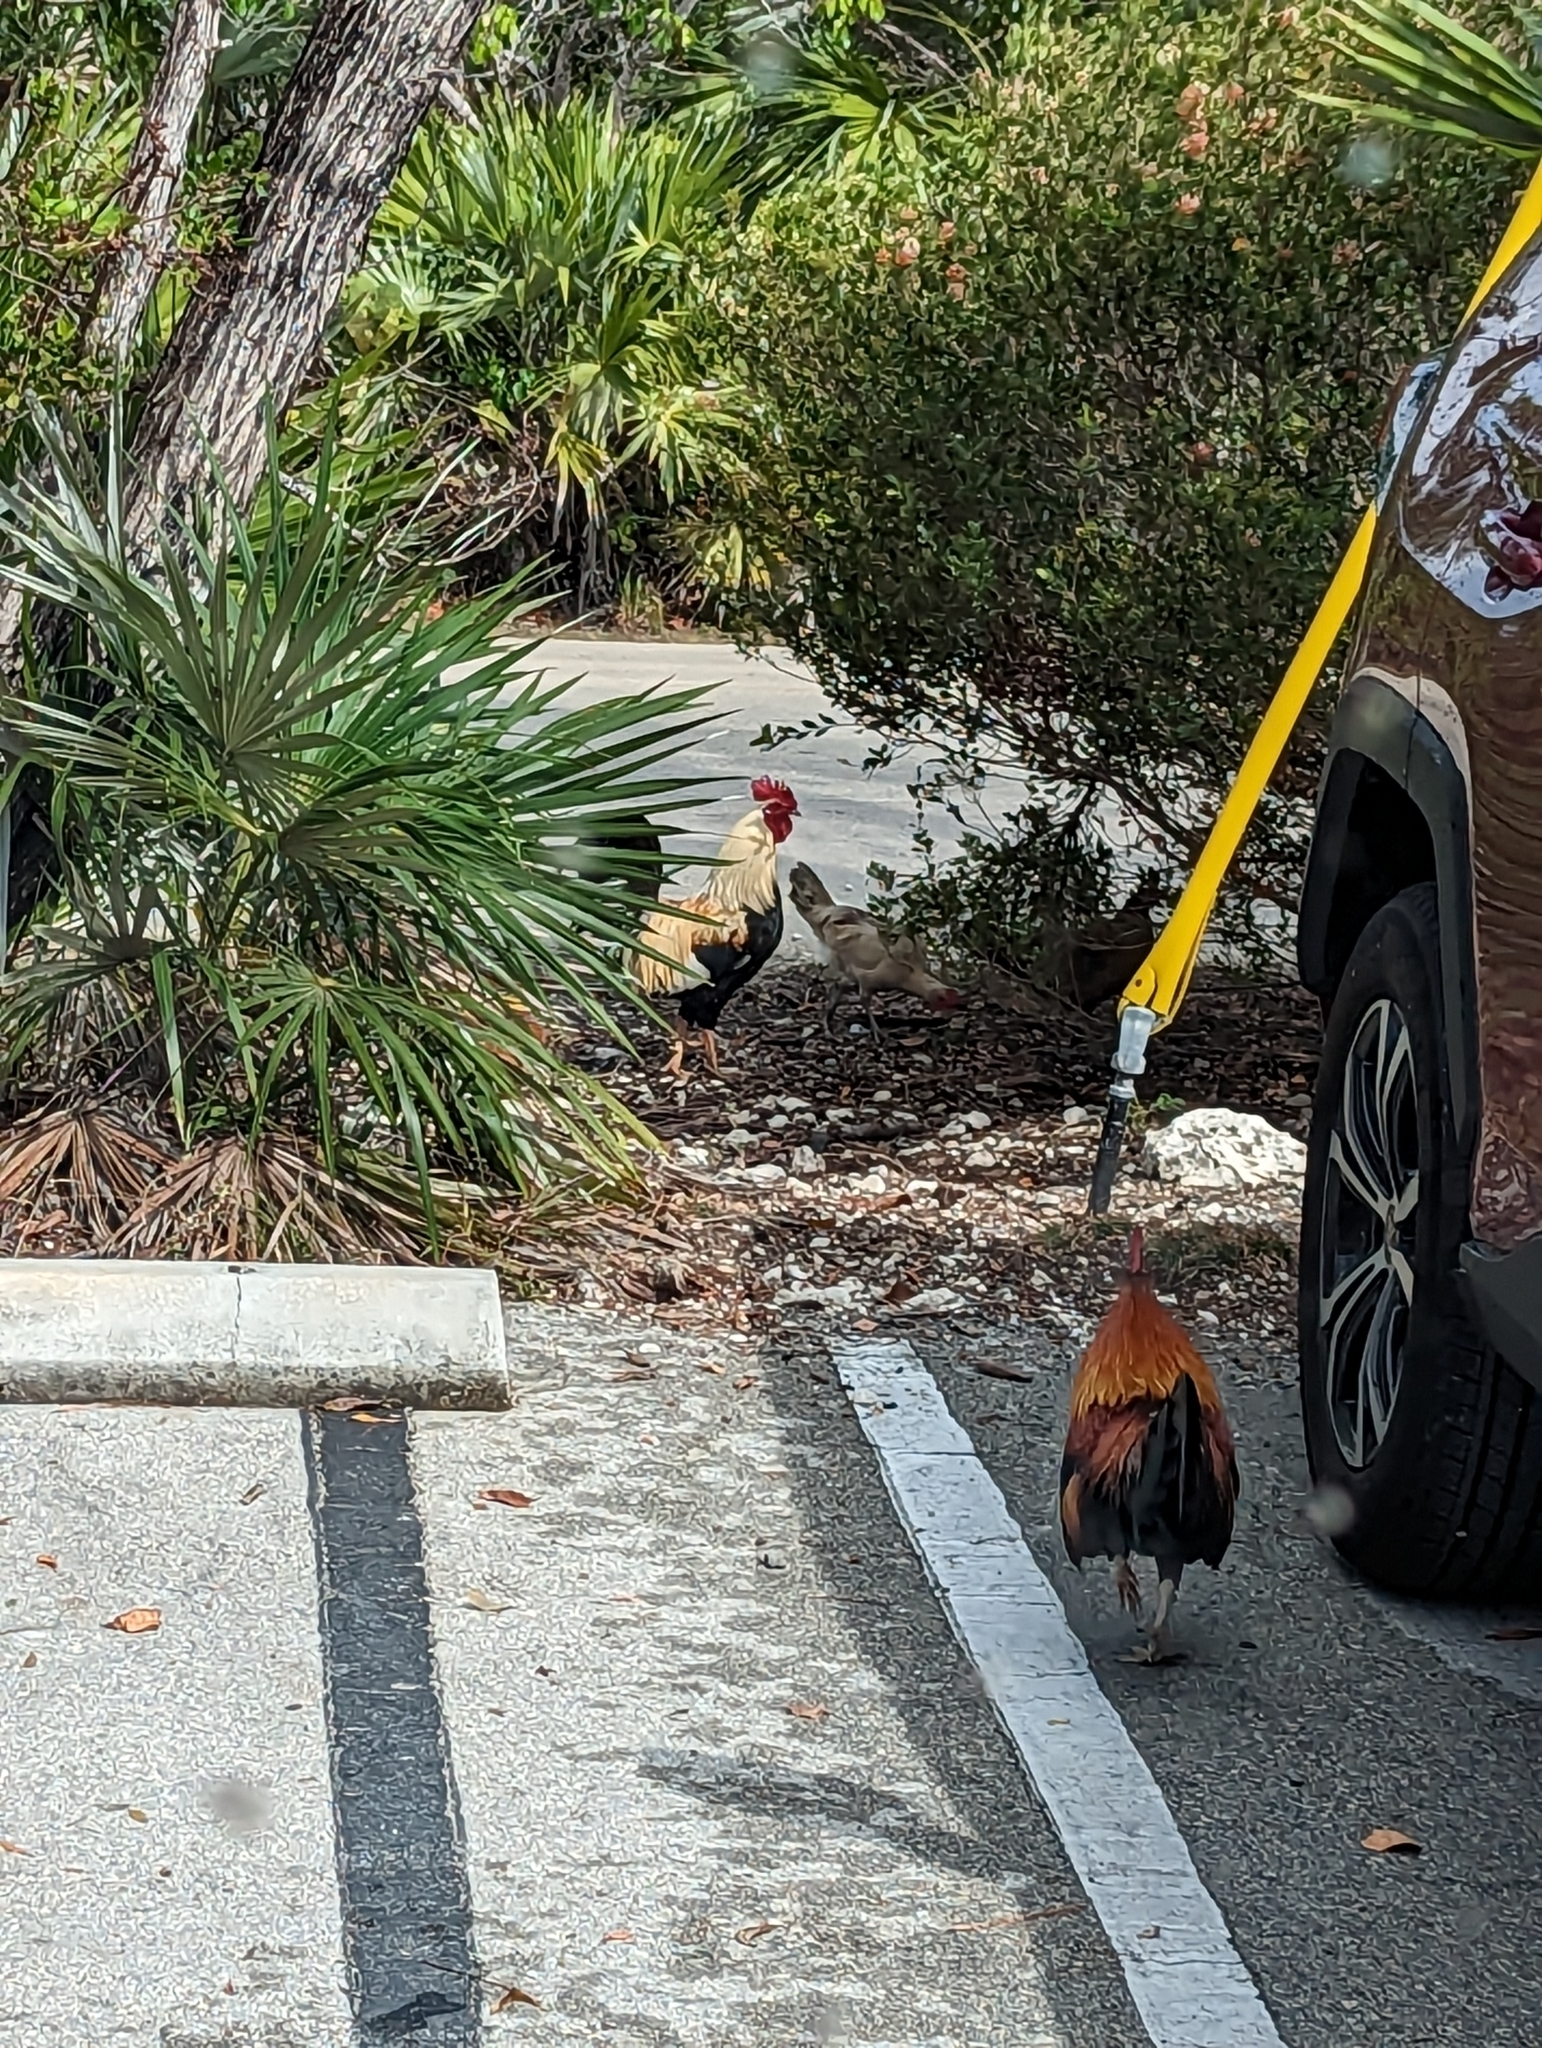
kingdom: Animalia
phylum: Chordata
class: Aves
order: Galliformes
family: Phasianidae
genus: Gallus
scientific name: Gallus gallus
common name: Red junglefowl
